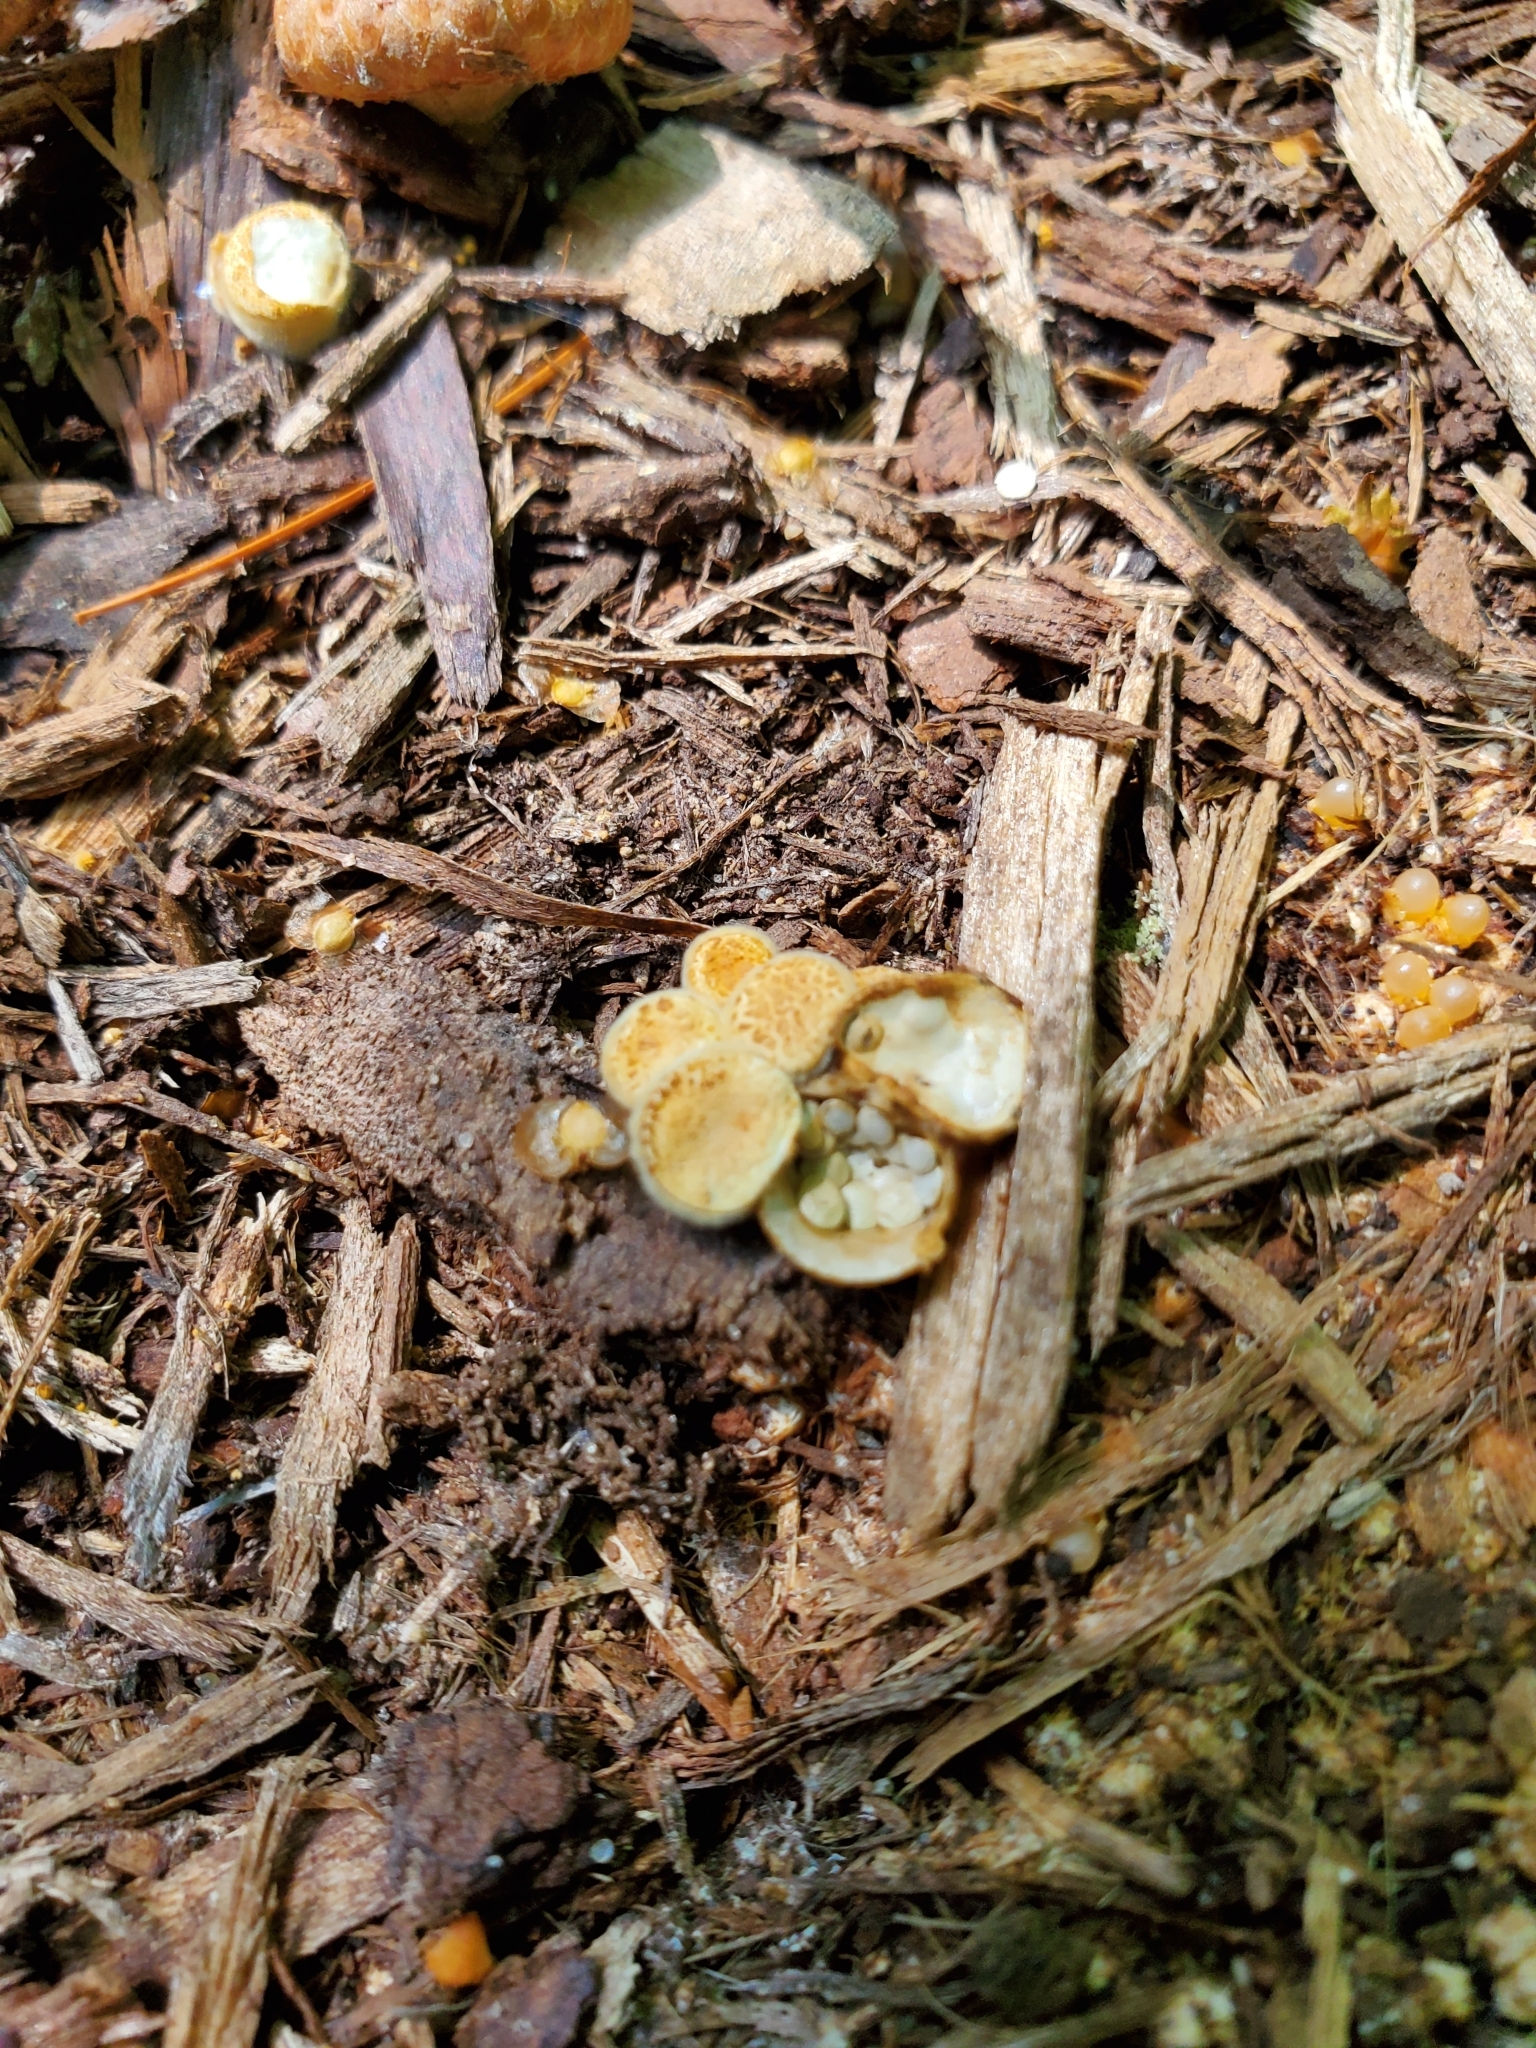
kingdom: Fungi
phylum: Basidiomycota
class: Agaricomycetes
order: Agaricales
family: Nidulariaceae
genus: Crucibulum
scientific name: Crucibulum laeve
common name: Common bird's nest
